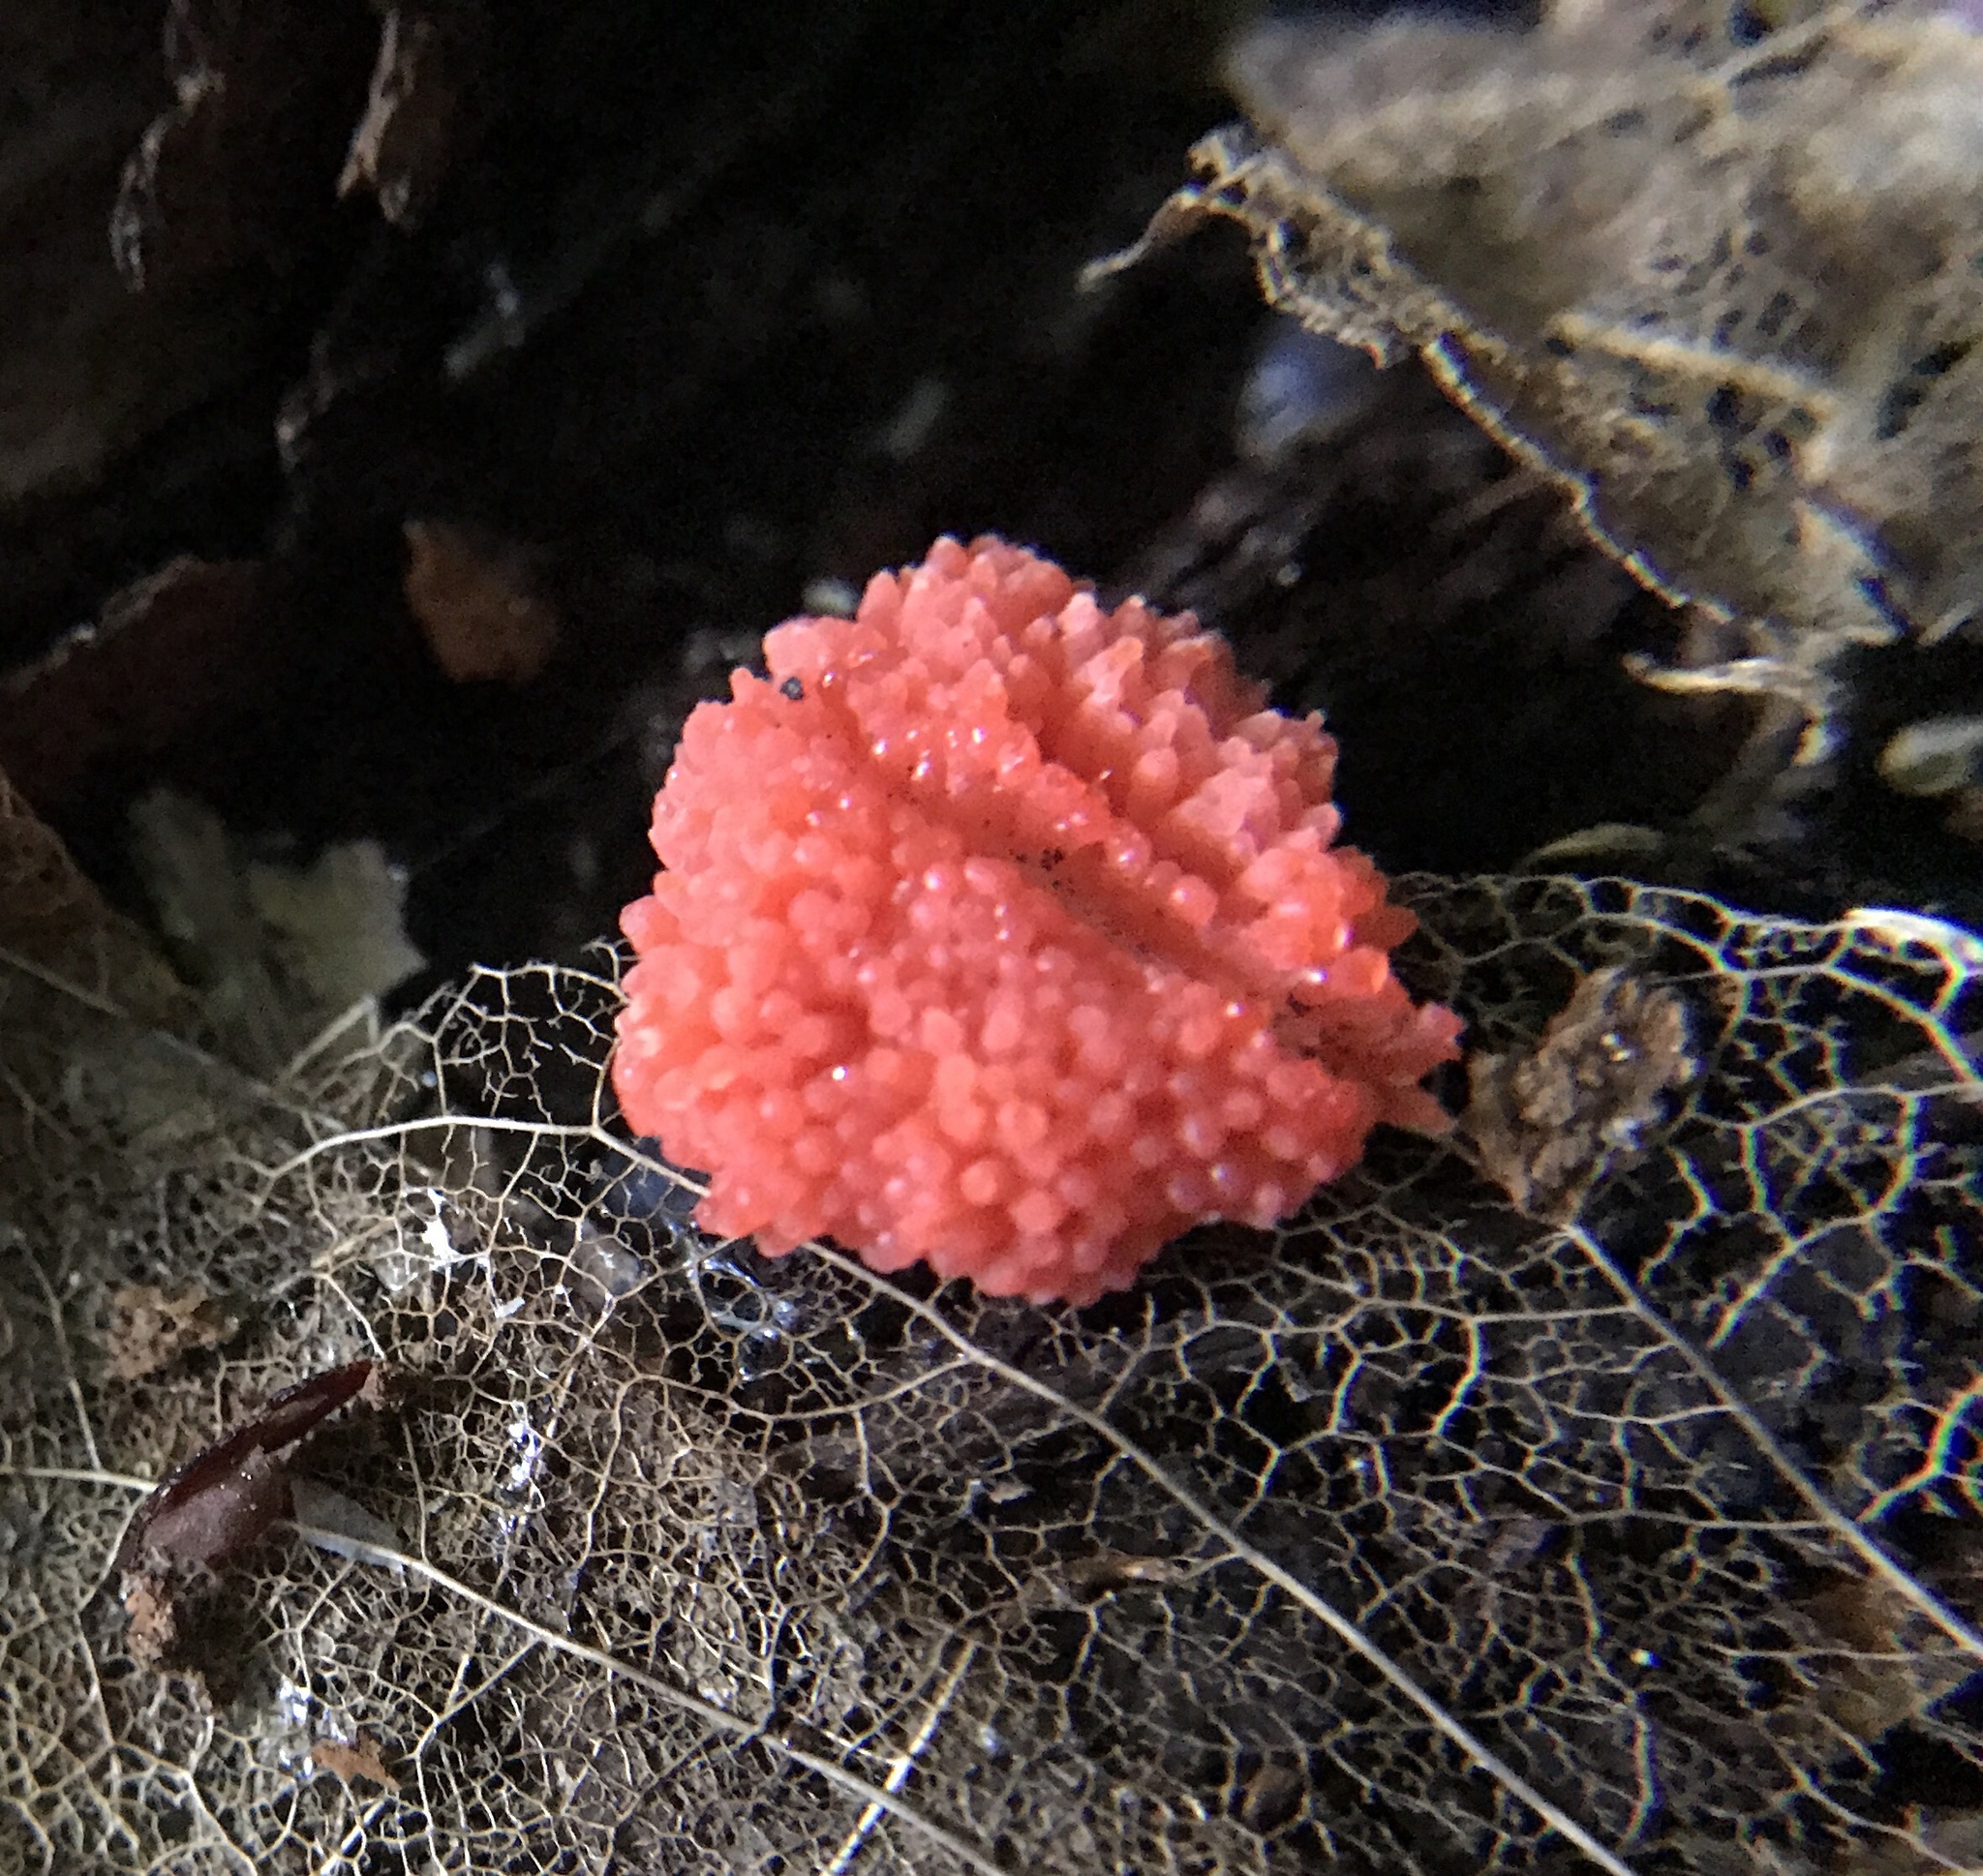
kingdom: Protozoa
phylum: Mycetozoa
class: Myxomycetes
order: Cribrariales
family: Tubiferaceae
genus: Tubifera
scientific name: Tubifera ferruginosa
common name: Red raspberry slime mold
